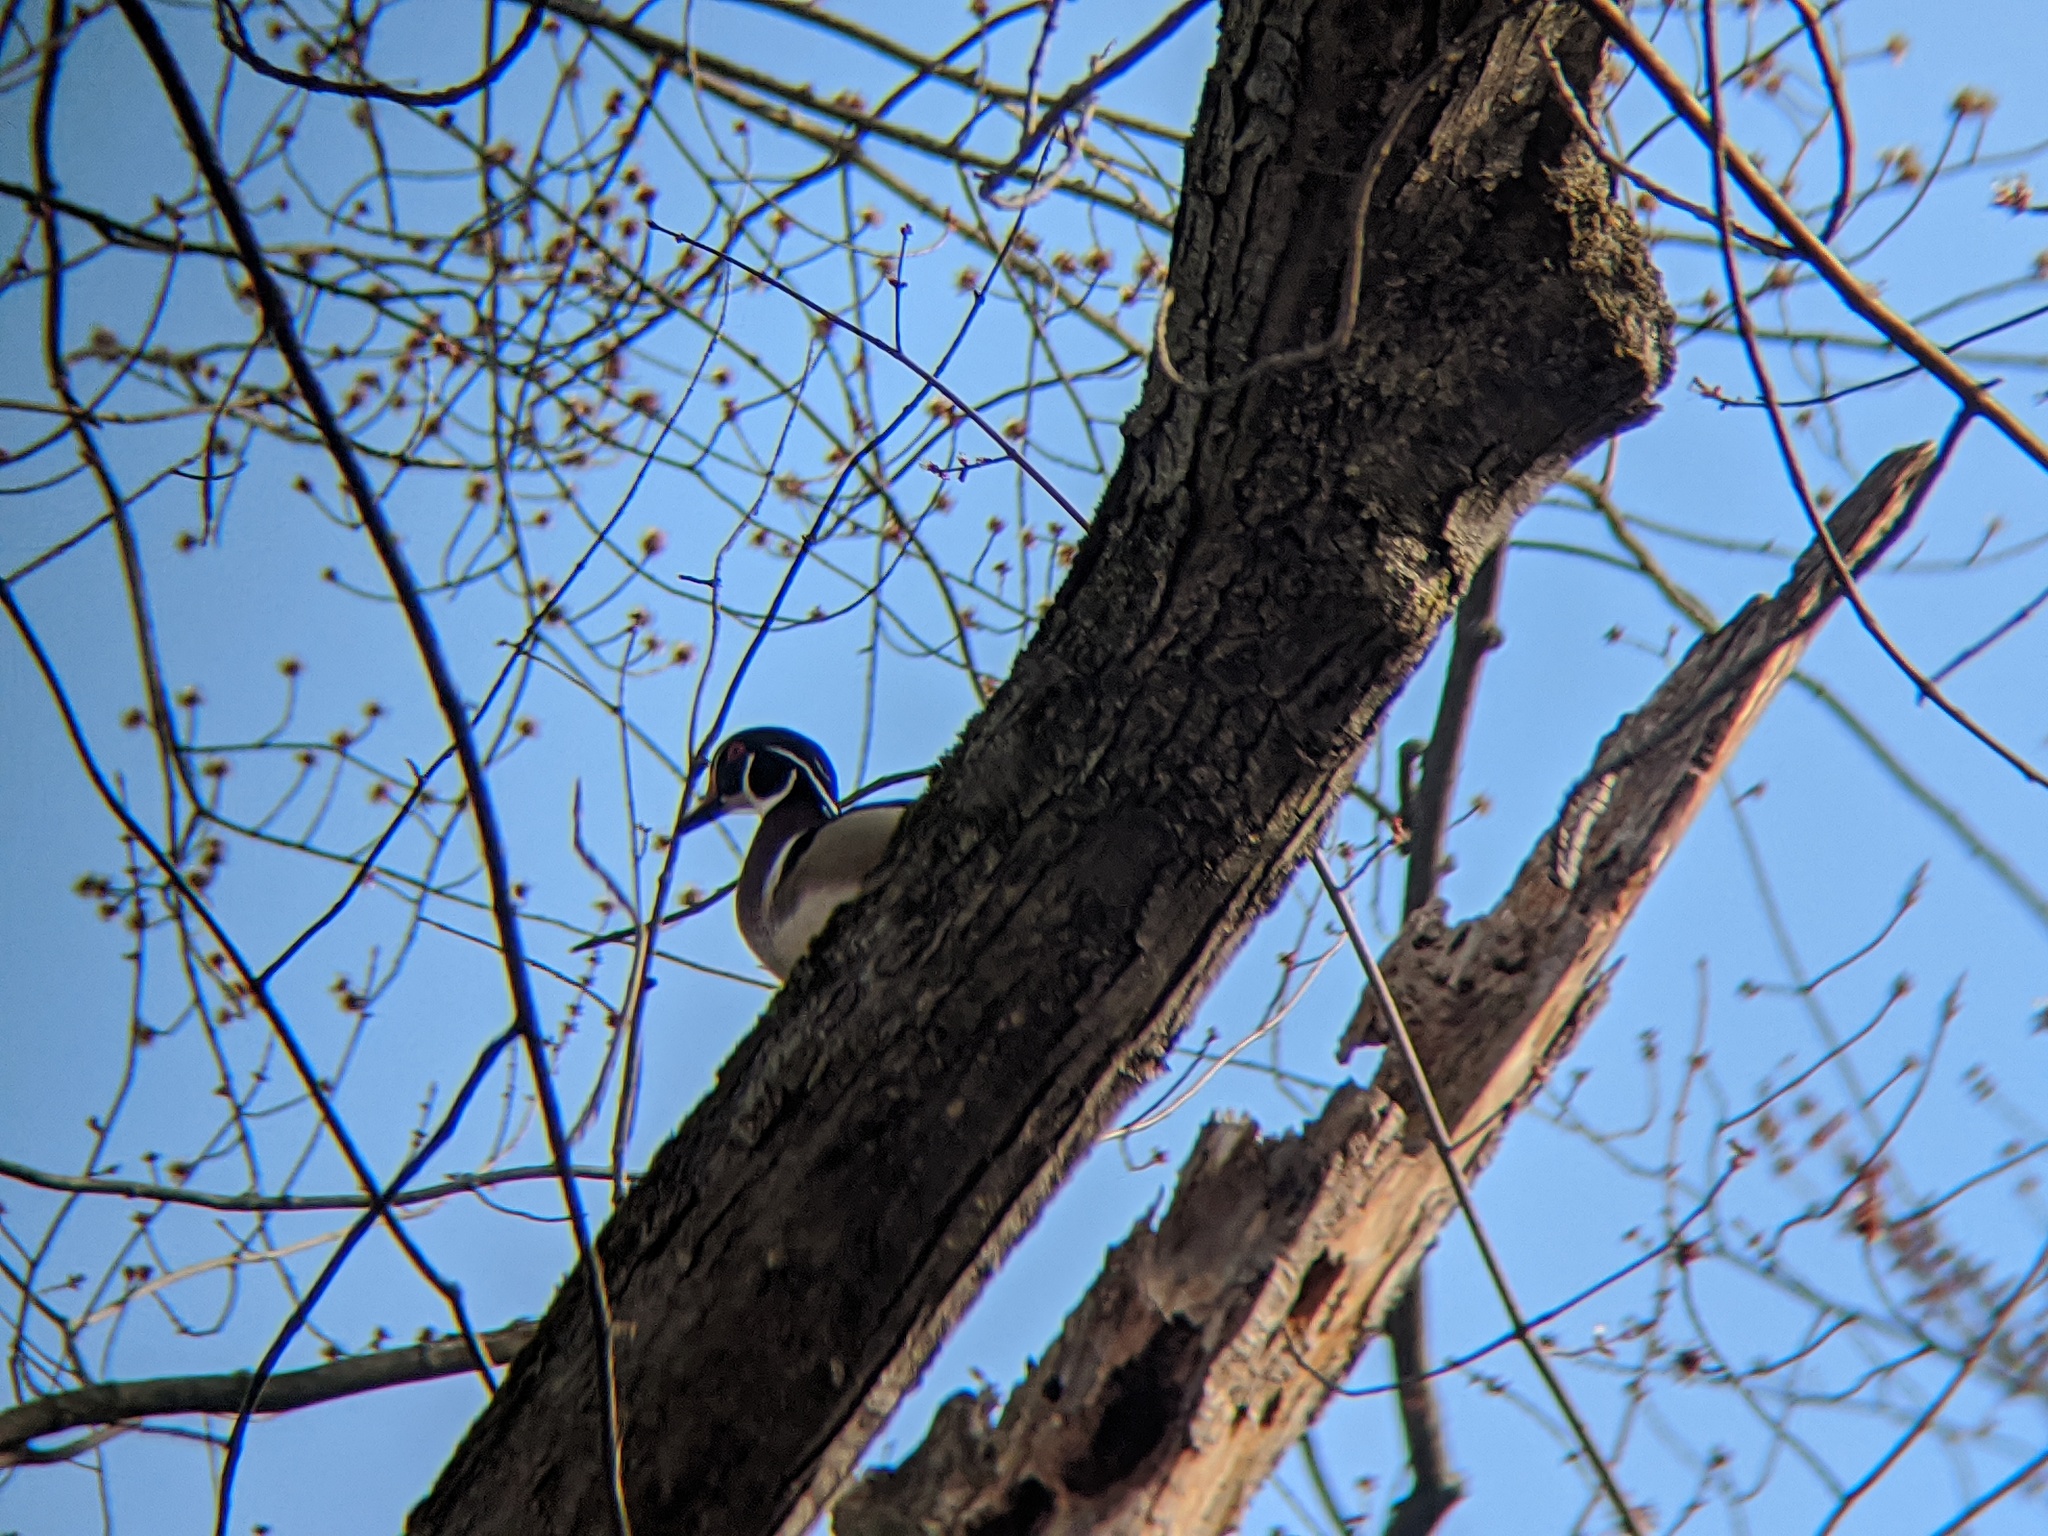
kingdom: Animalia
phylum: Chordata
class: Aves
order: Anseriformes
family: Anatidae
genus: Aix
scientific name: Aix sponsa
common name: Wood duck
